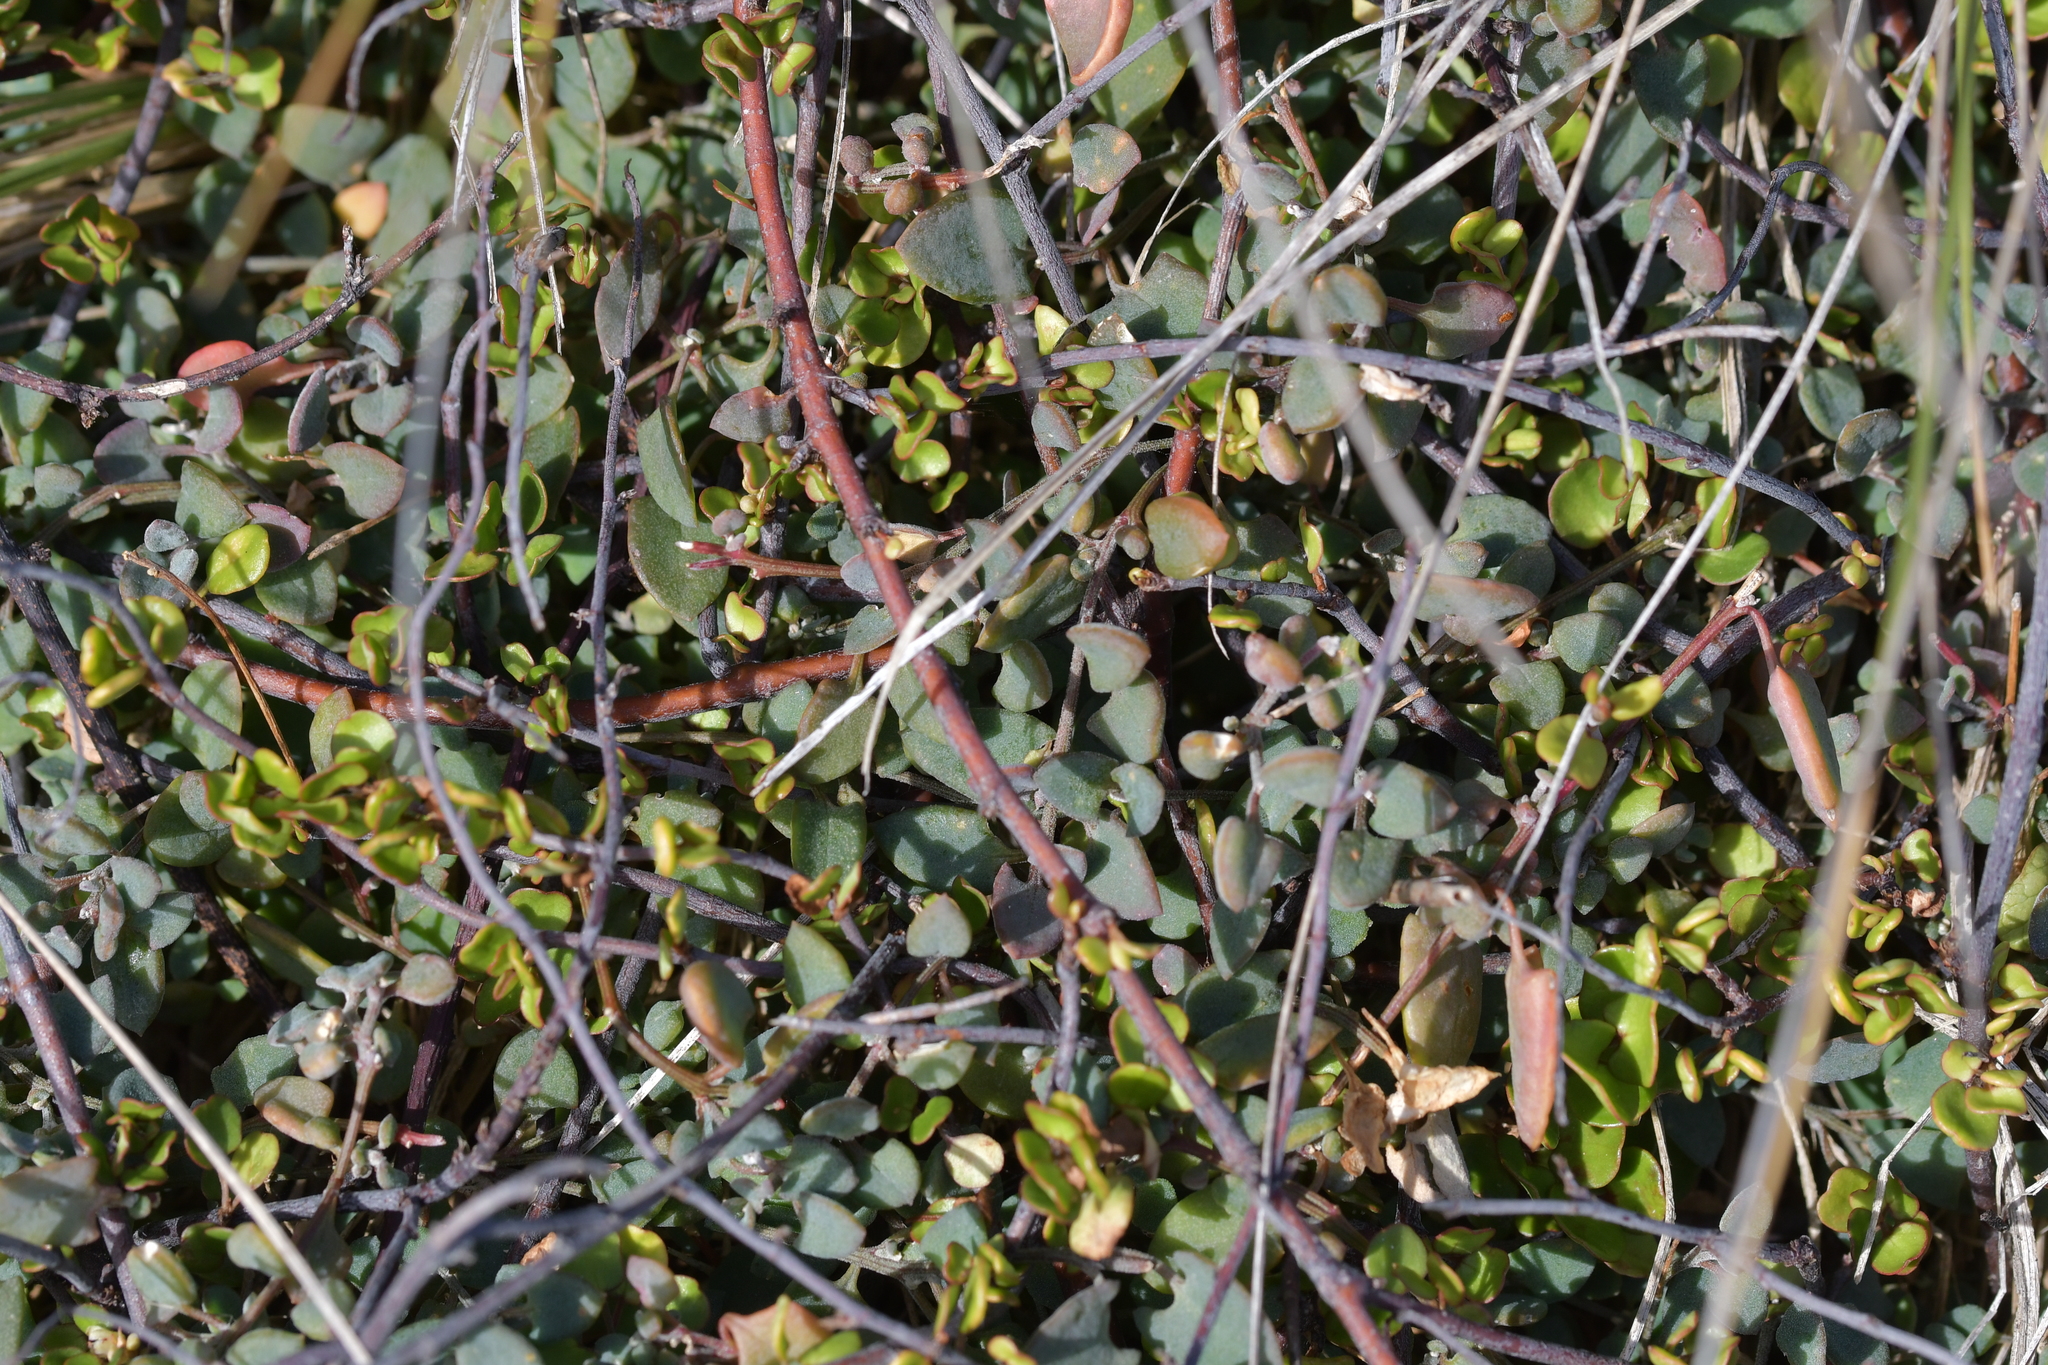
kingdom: Plantae
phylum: Tracheophyta
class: Magnoliopsida
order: Caryophyllales
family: Amaranthaceae
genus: Chenopodium
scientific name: Chenopodium triandrum
